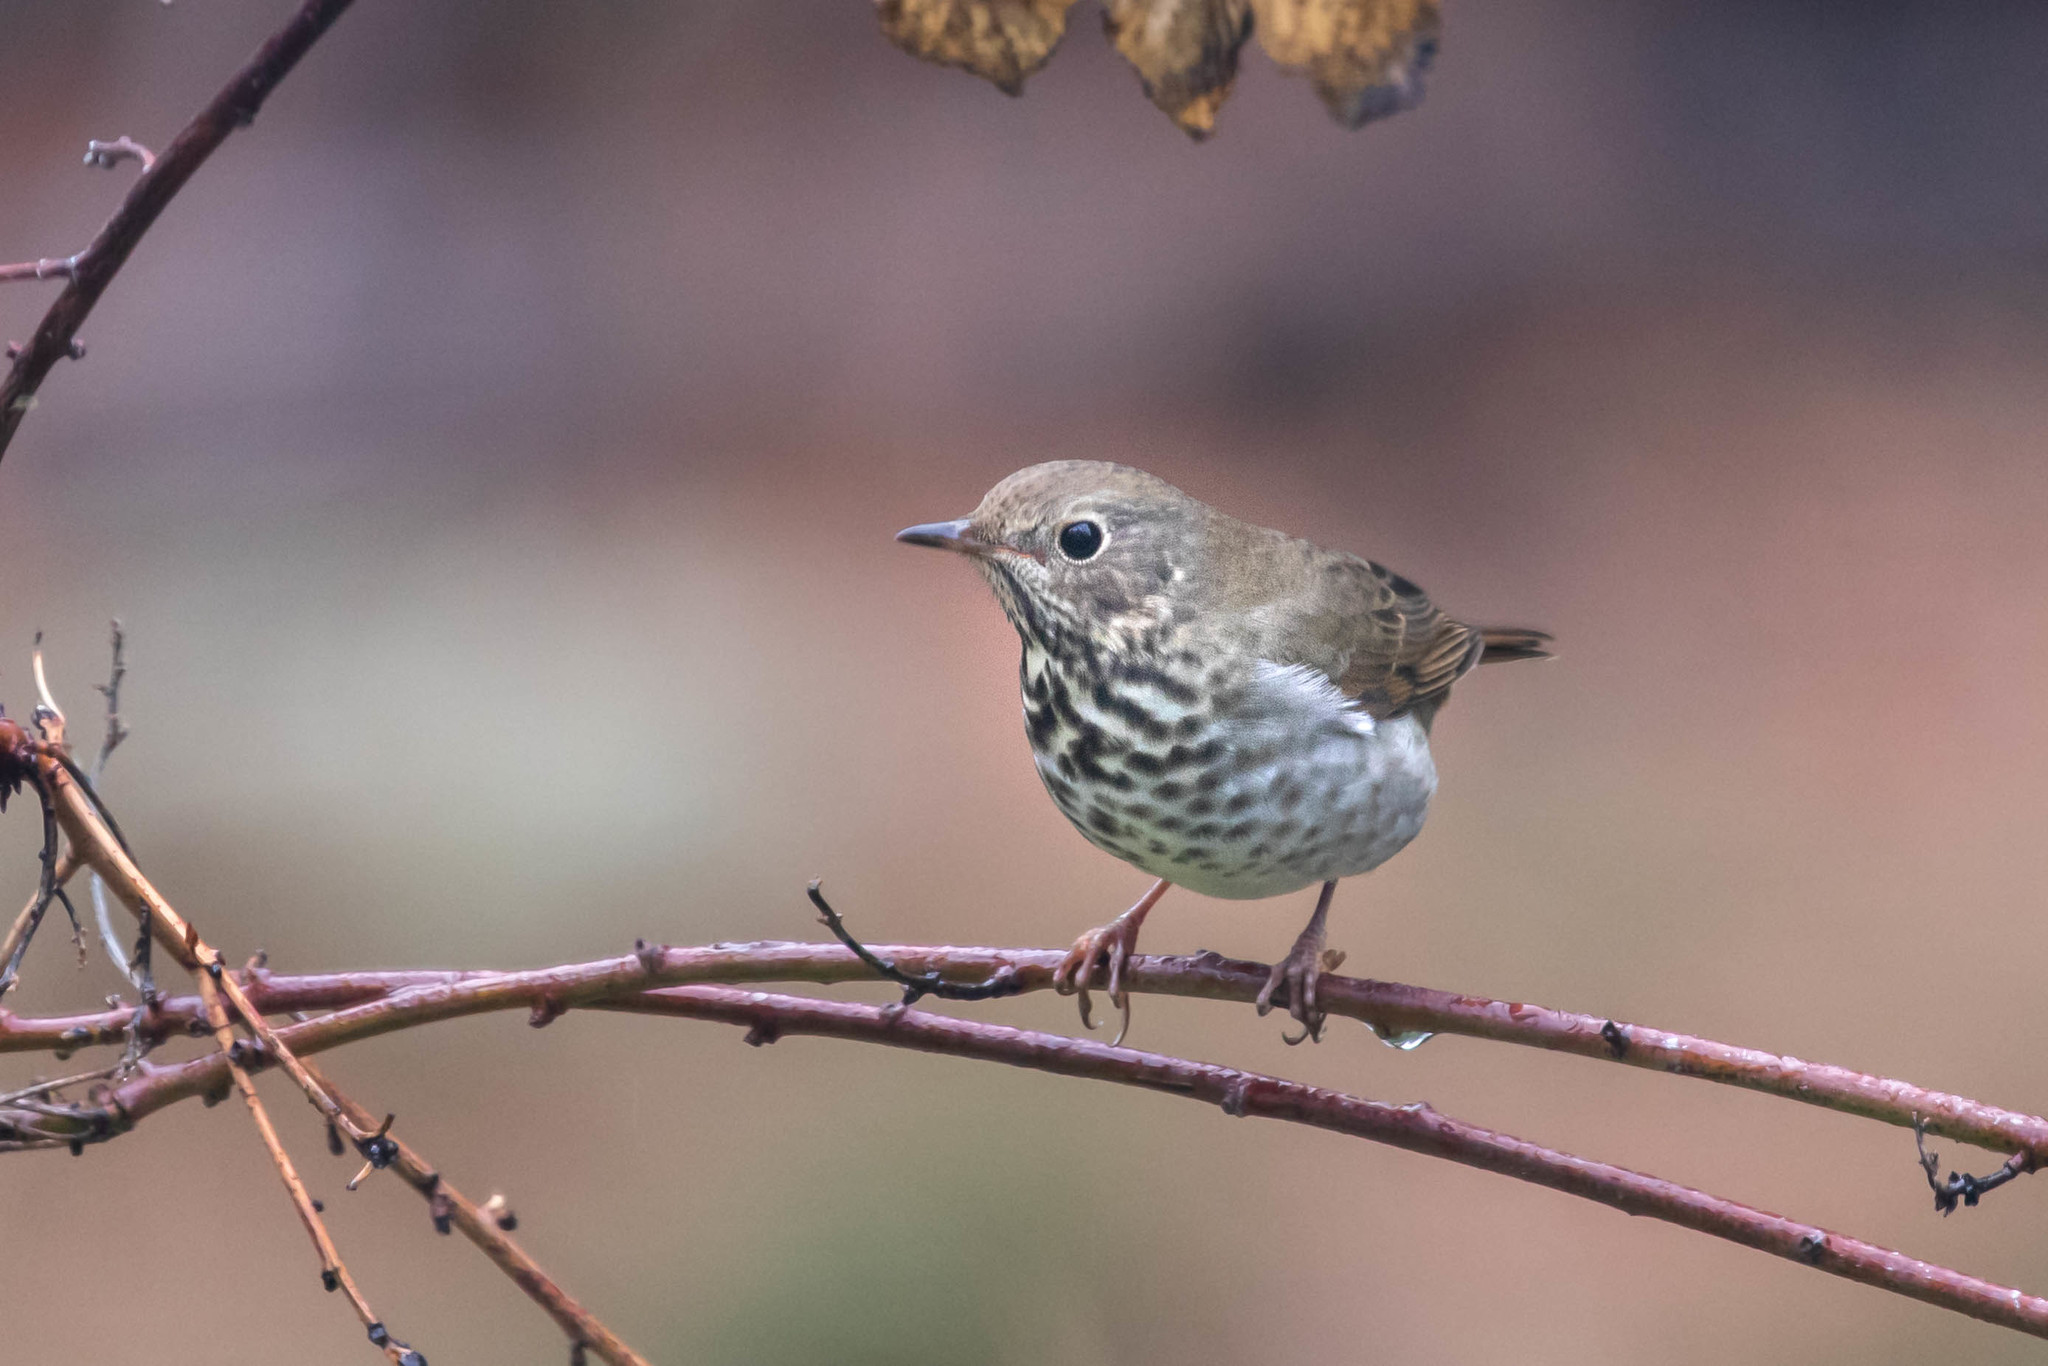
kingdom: Animalia
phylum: Chordata
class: Aves
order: Passeriformes
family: Turdidae
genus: Catharus
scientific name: Catharus guttatus
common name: Hermit thrush
